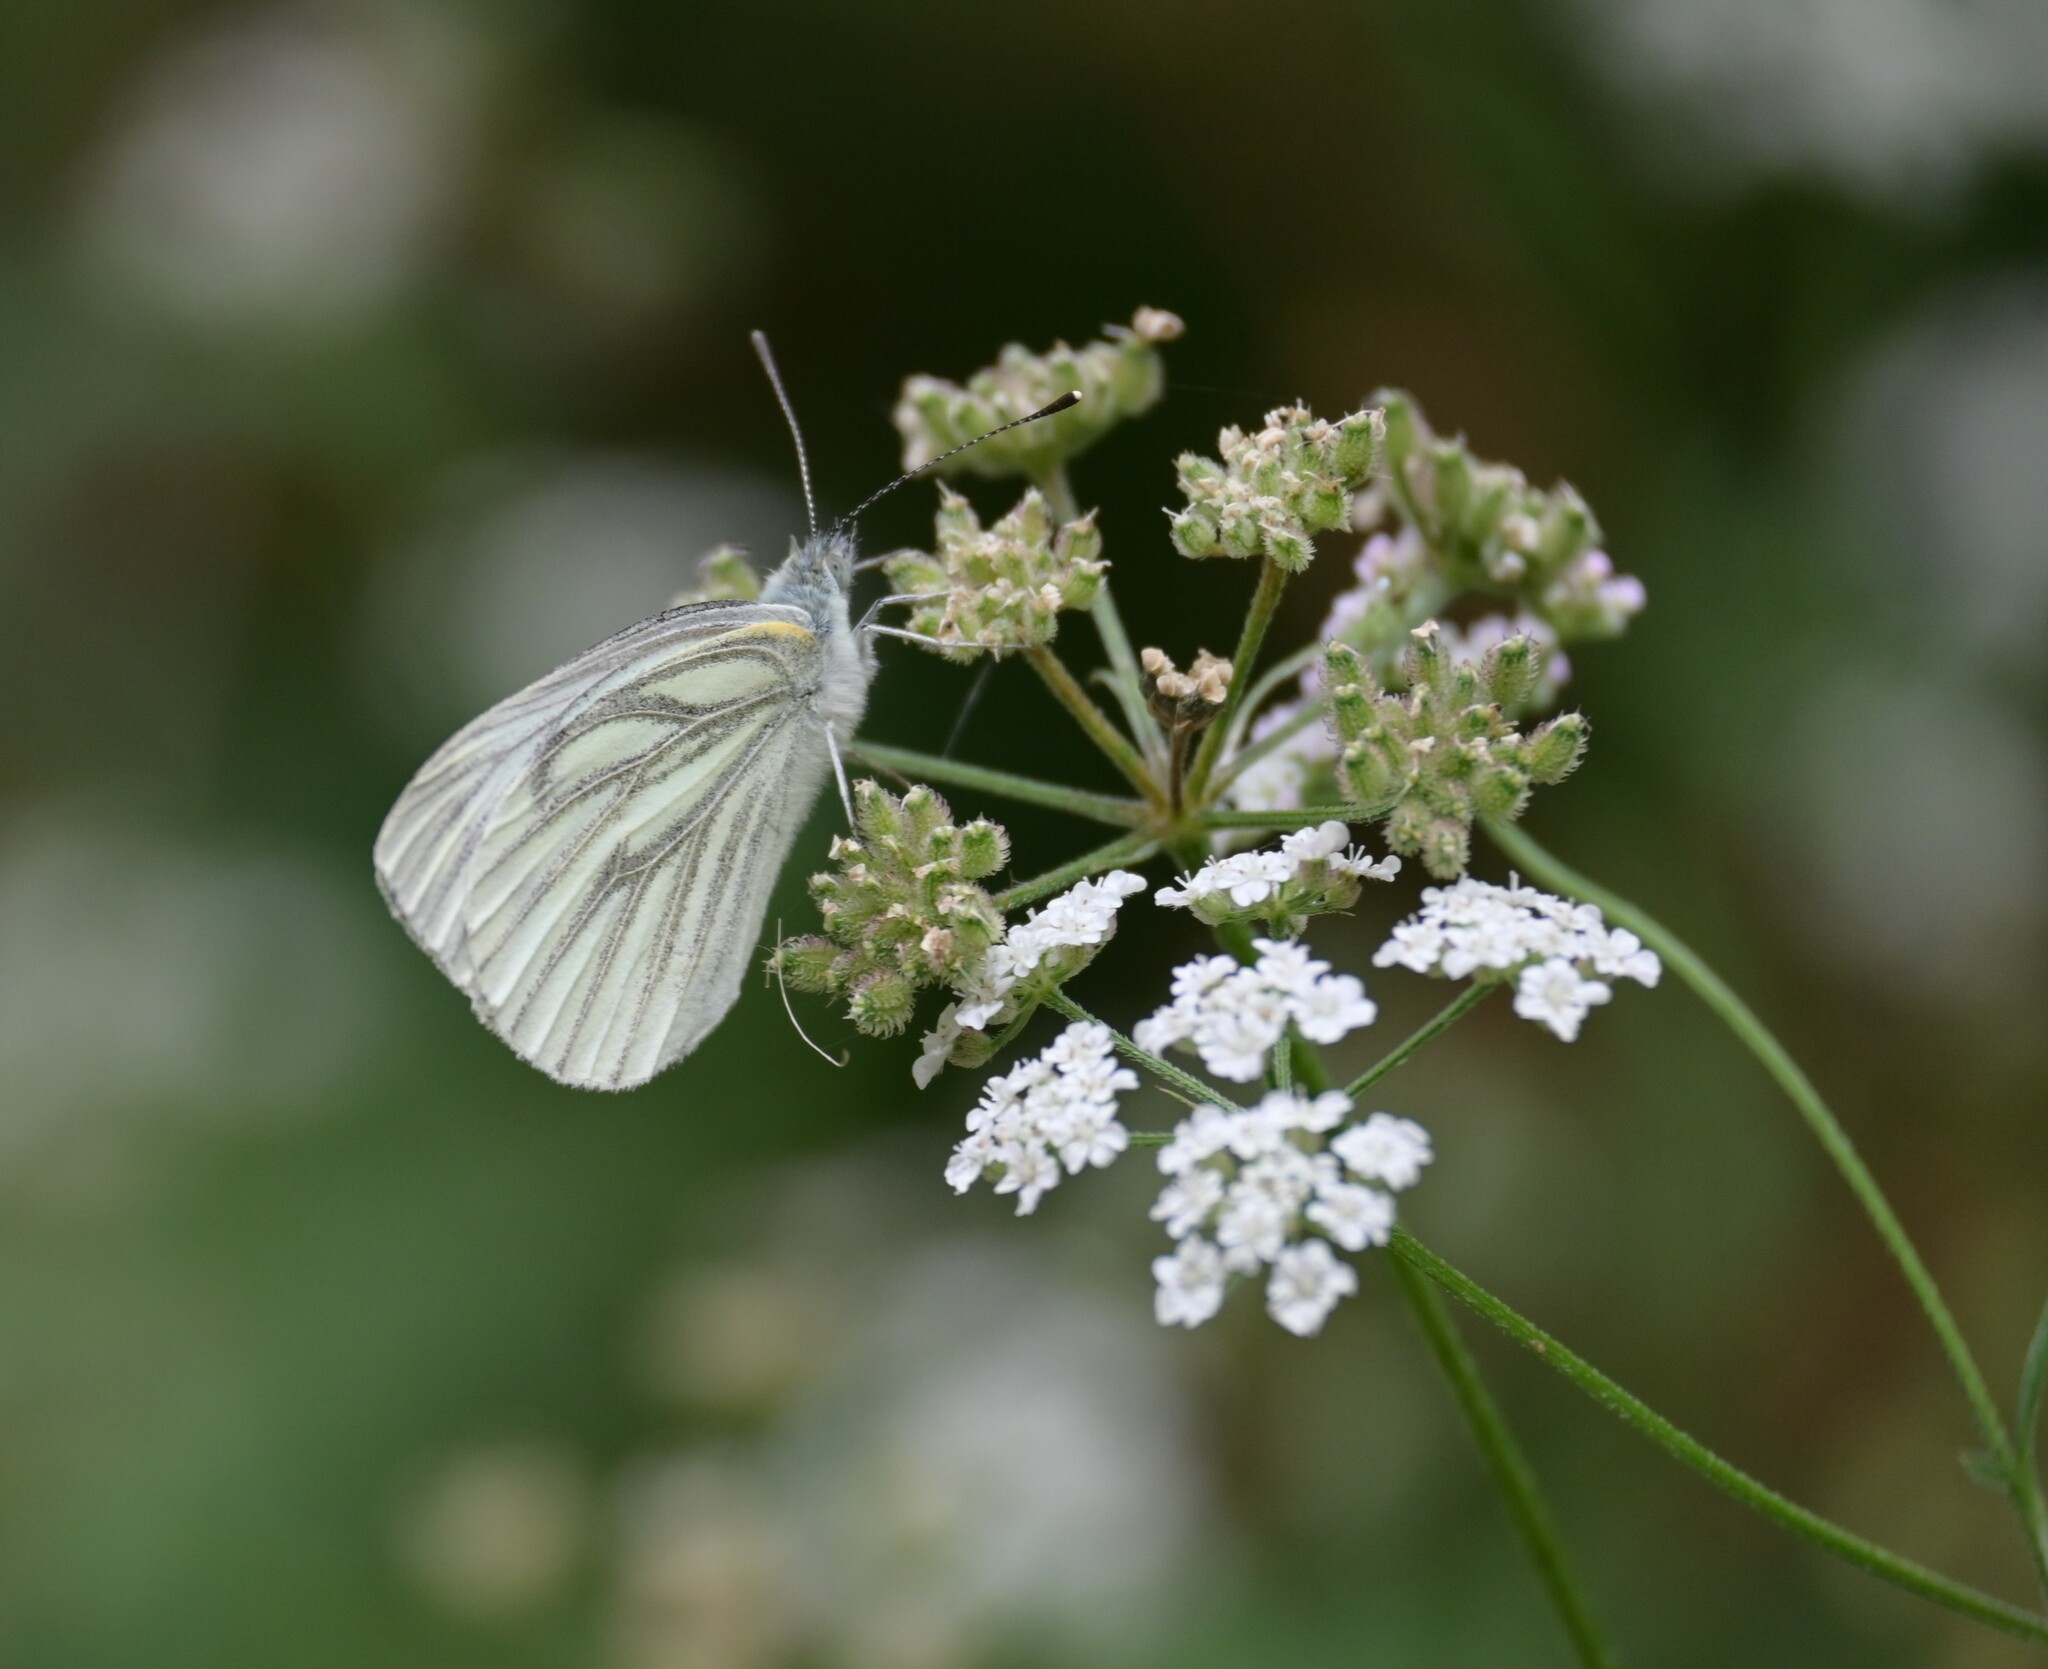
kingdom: Animalia
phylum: Arthropoda
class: Insecta
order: Lepidoptera
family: Pieridae
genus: Pieris
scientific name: Pieris napi
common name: Green-veined white
